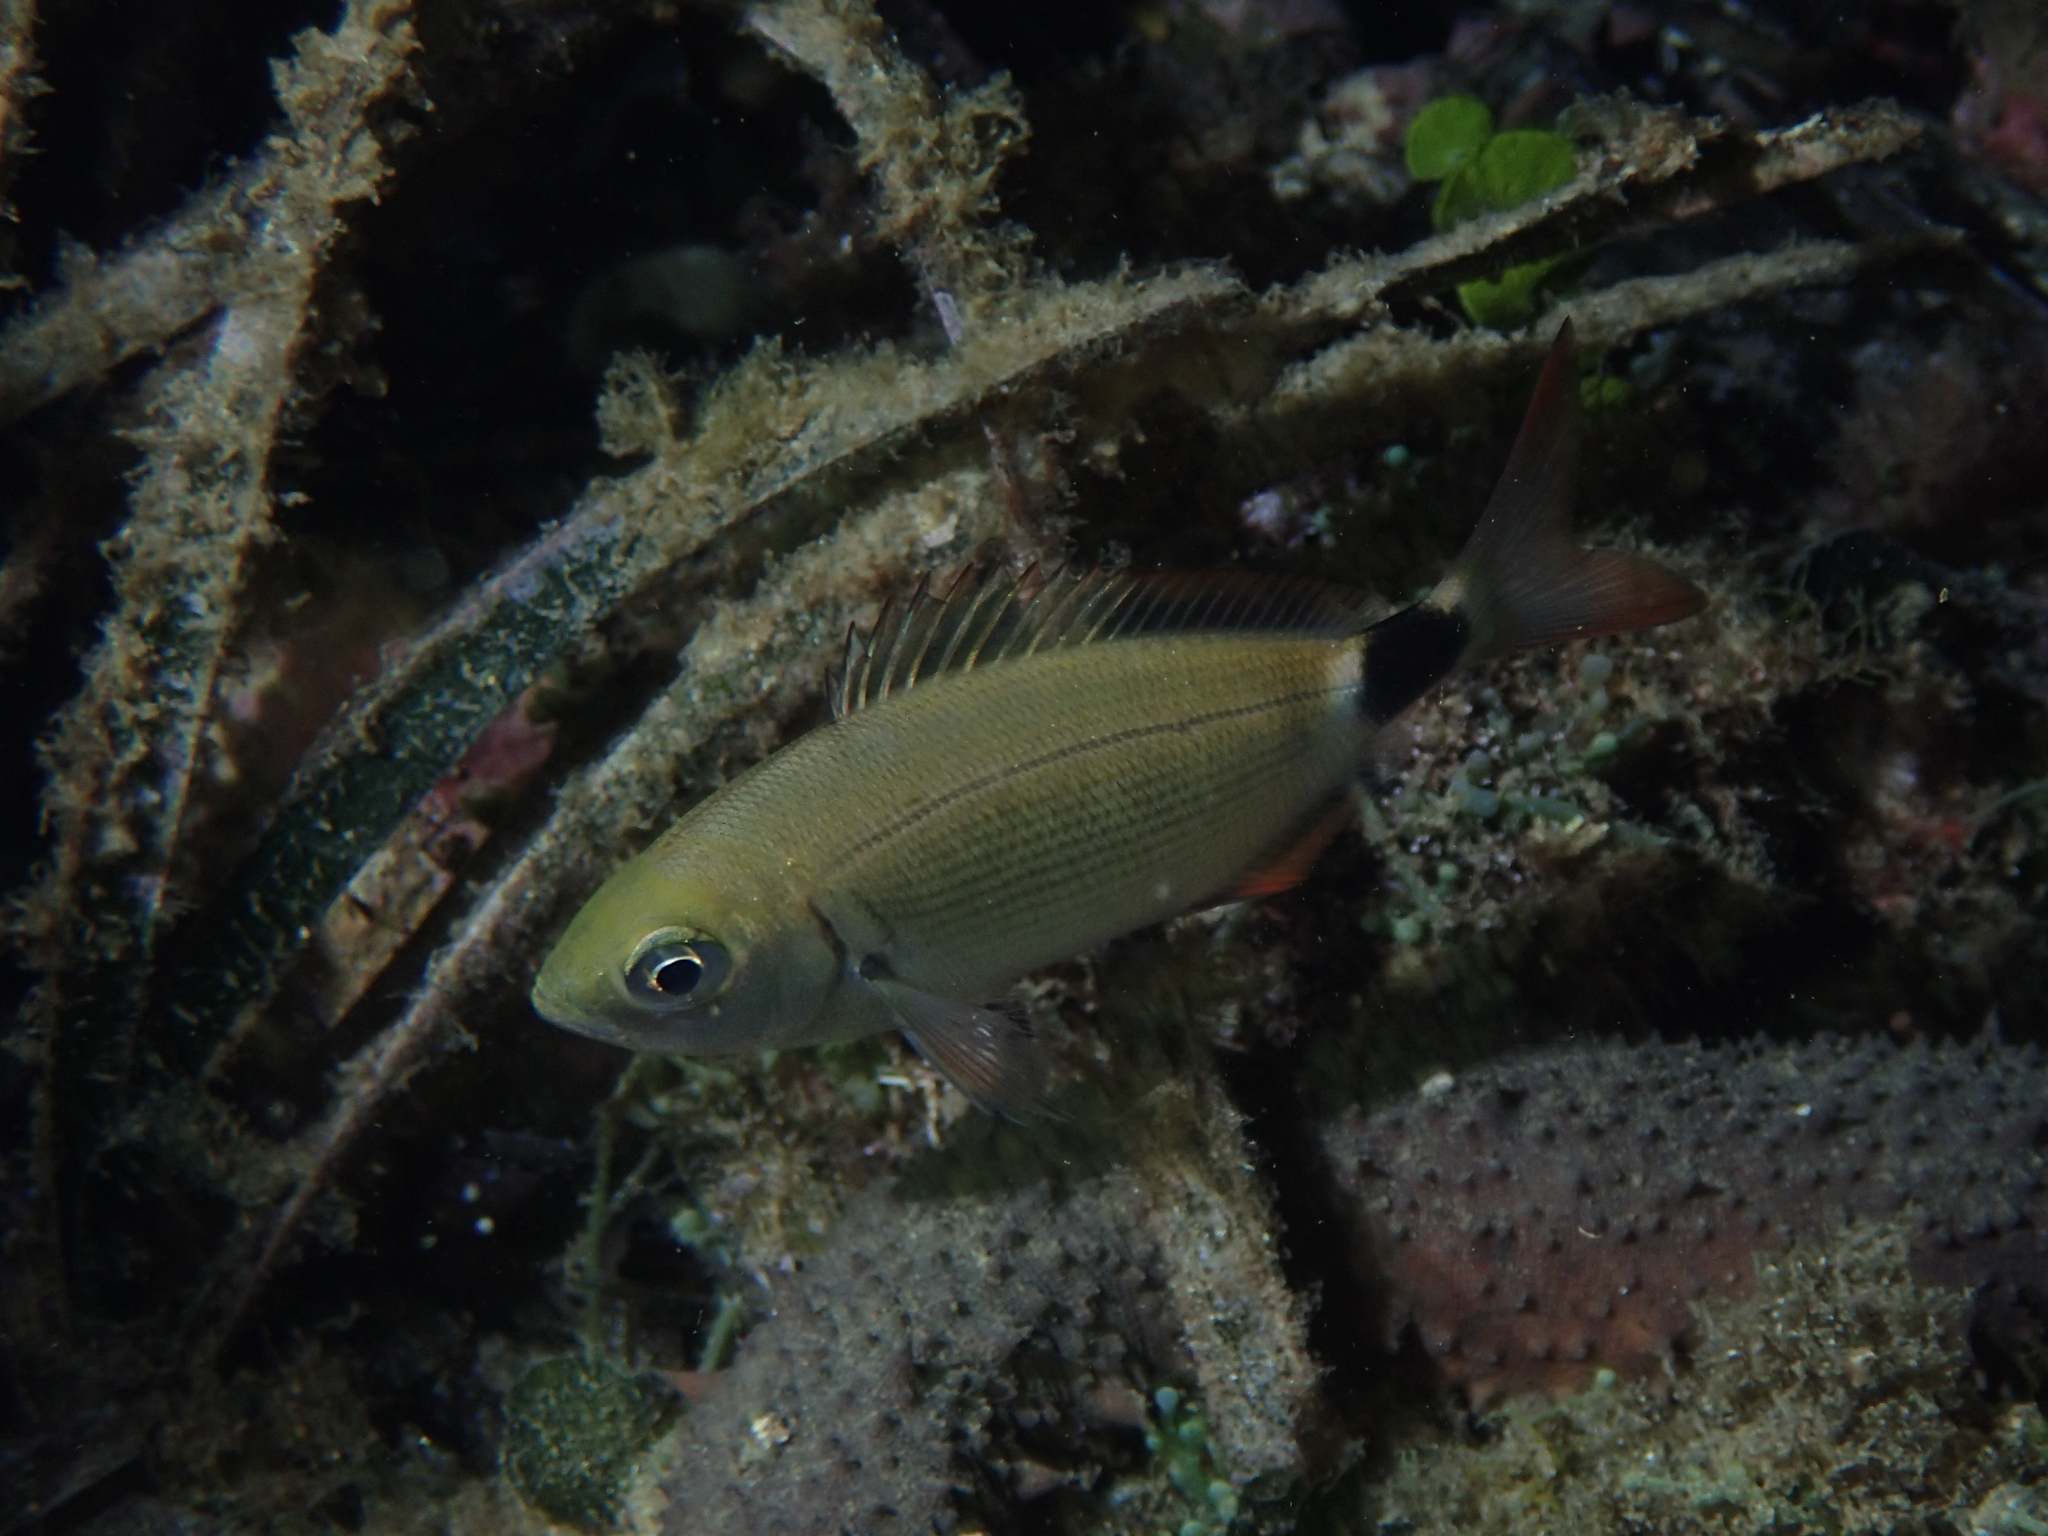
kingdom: Animalia
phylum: Chordata
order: Perciformes
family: Sparidae
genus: Oblada
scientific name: Oblada melanura
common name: Saddled seabream
